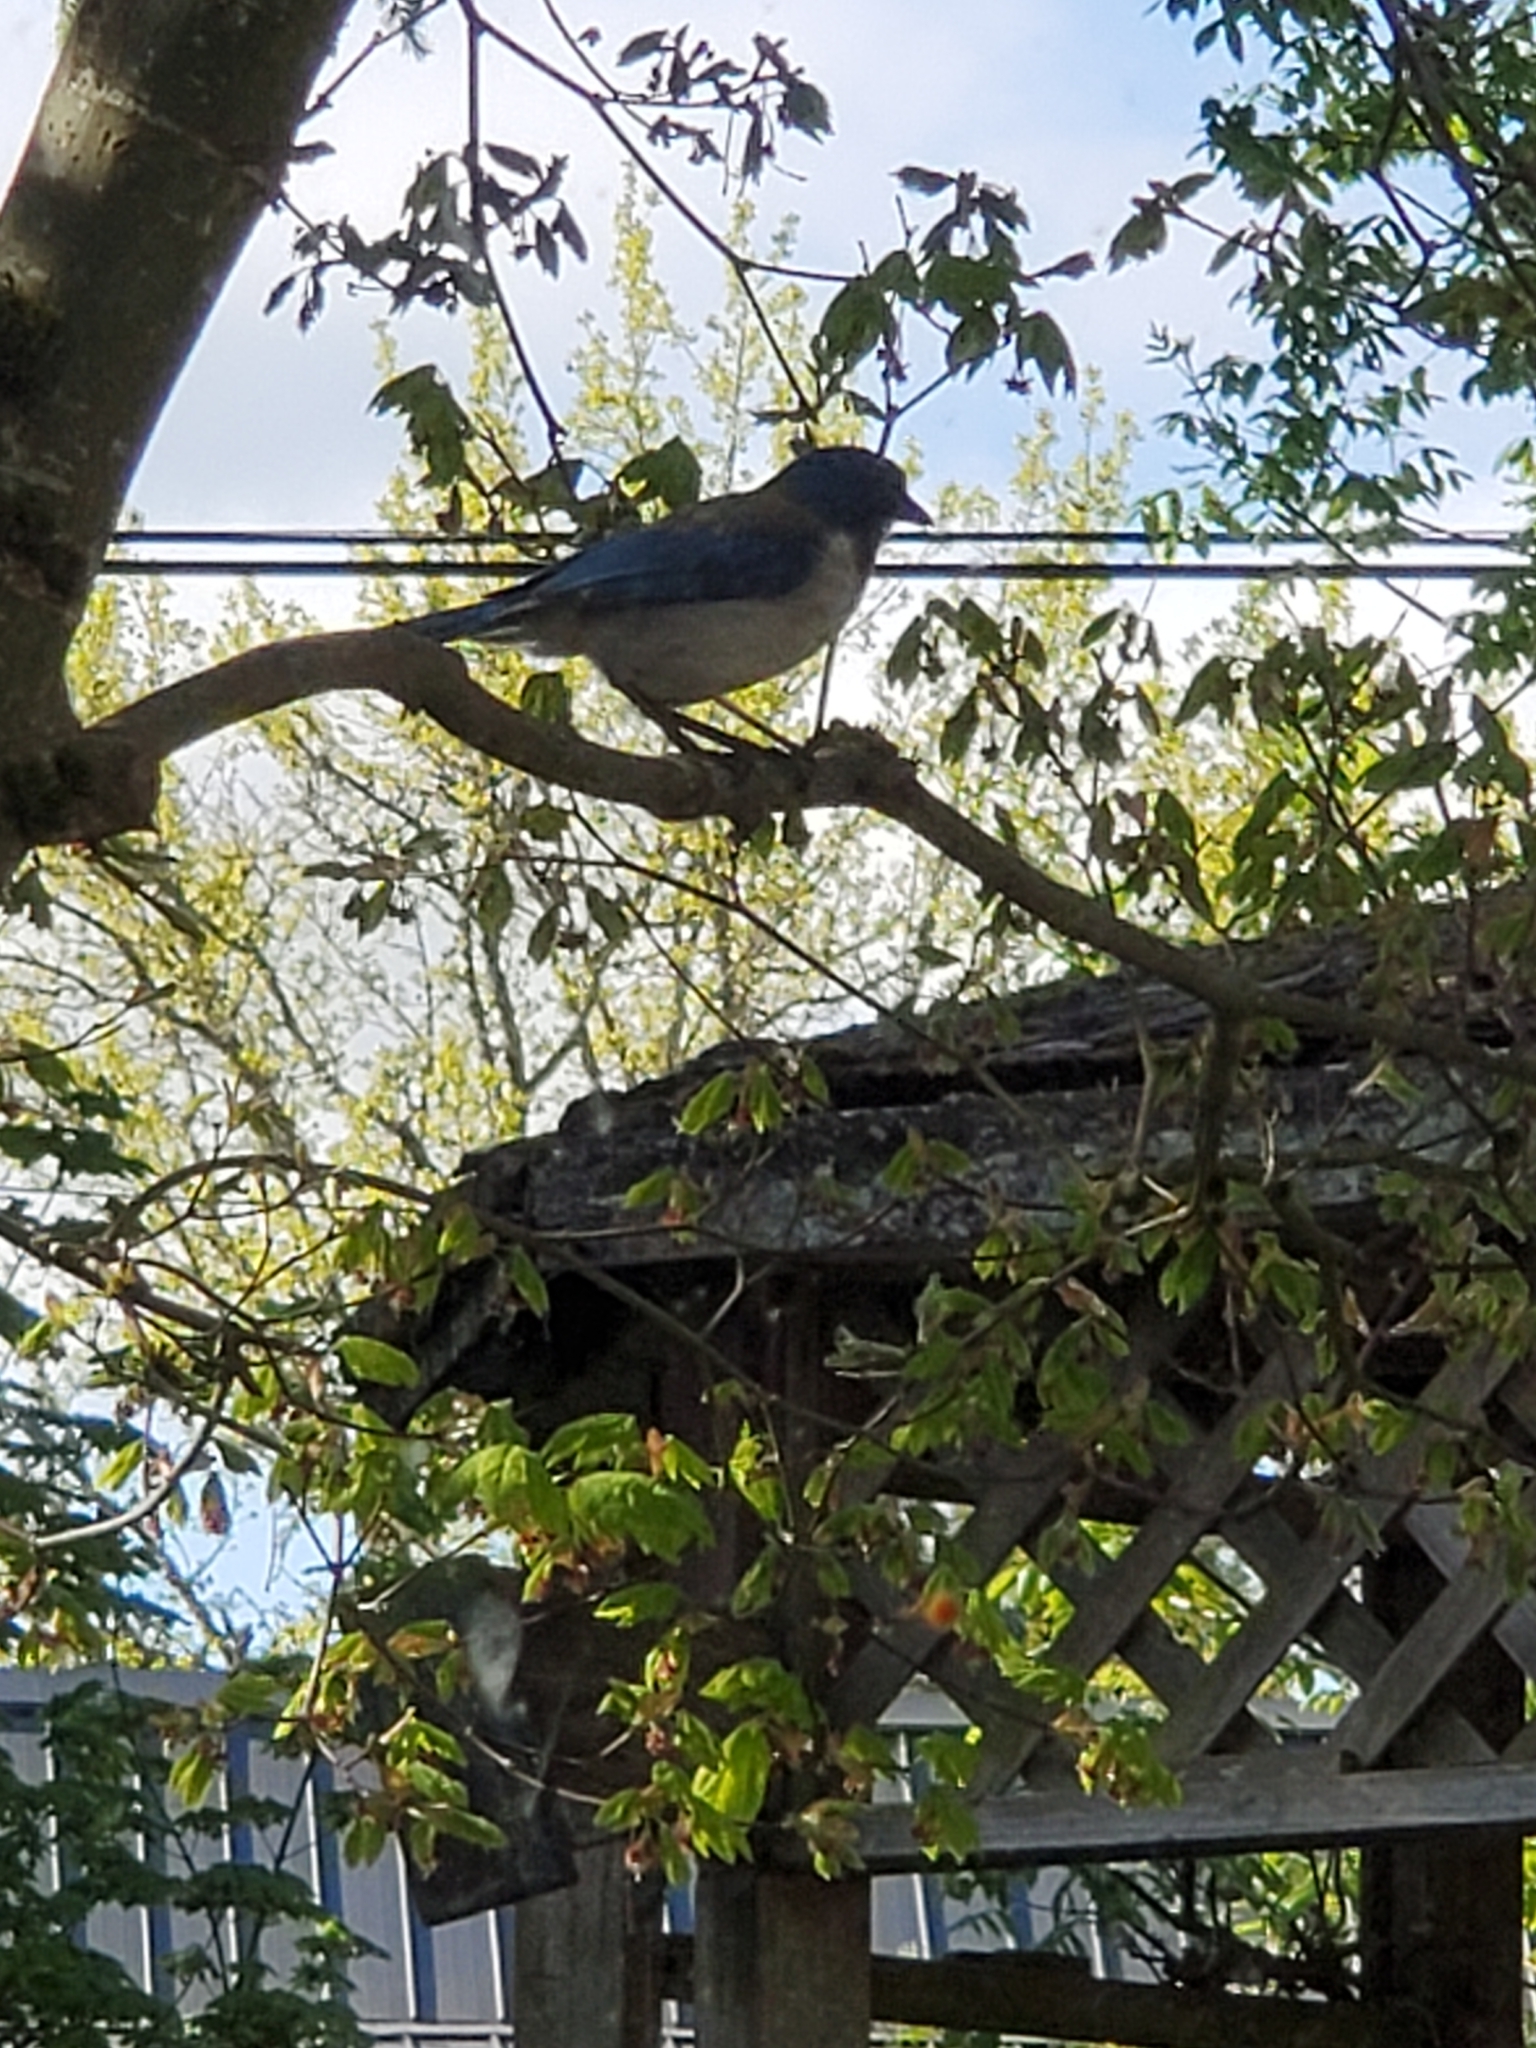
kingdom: Animalia
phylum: Chordata
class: Aves
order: Passeriformes
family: Corvidae
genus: Aphelocoma
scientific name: Aphelocoma californica
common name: California scrub-jay
